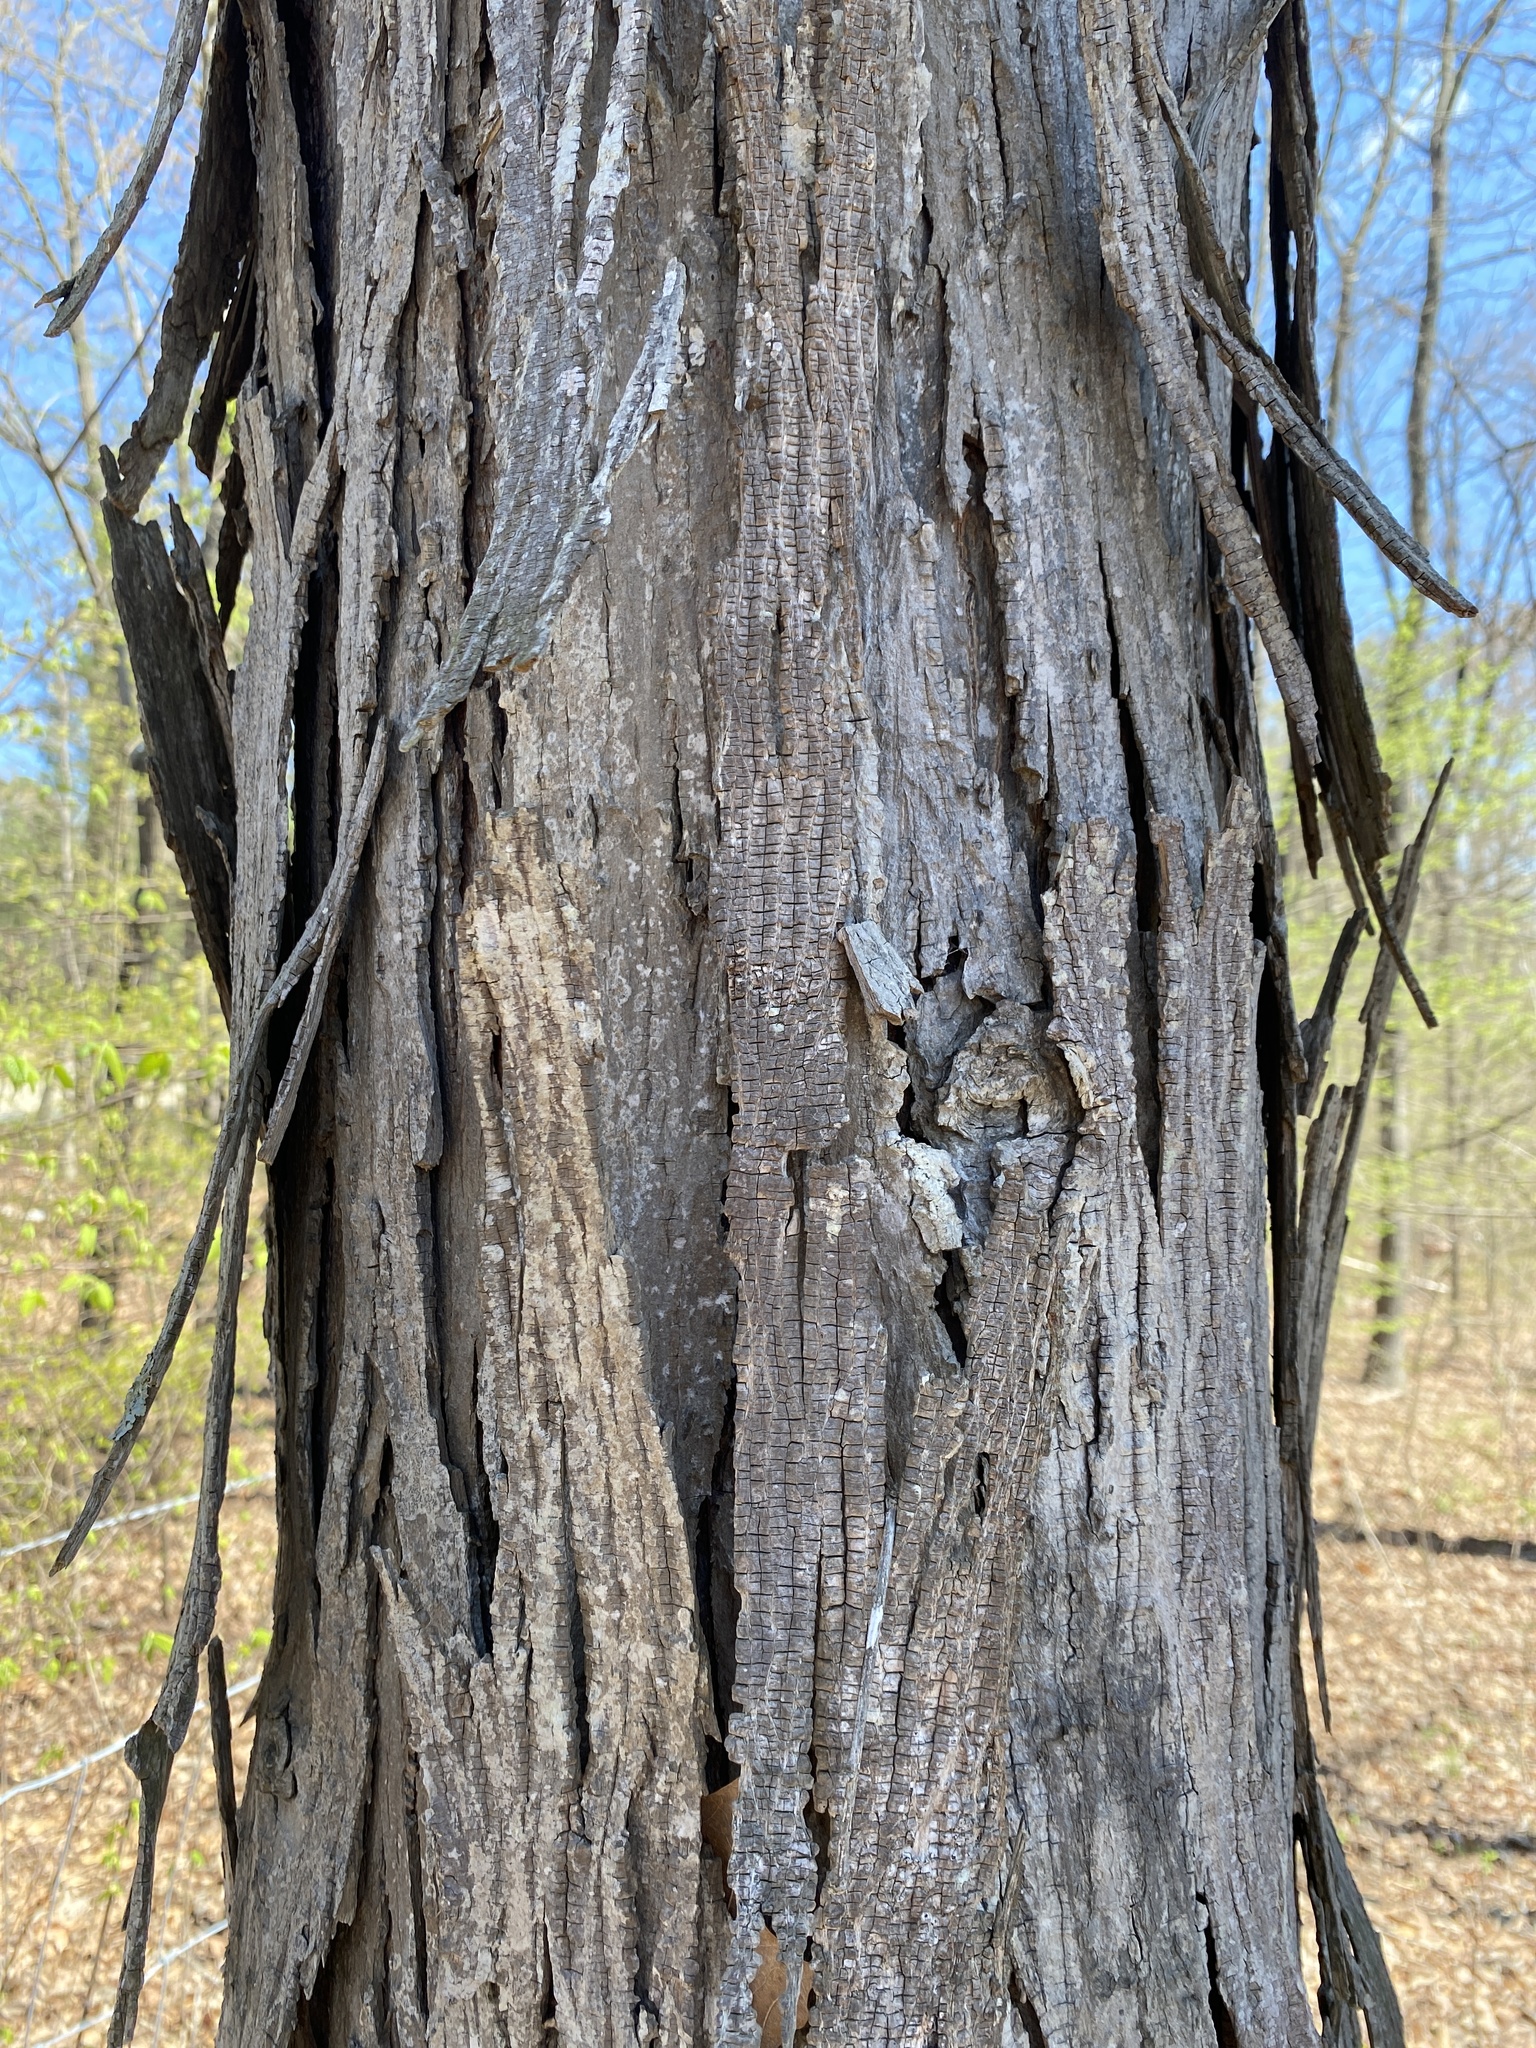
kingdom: Plantae
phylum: Tracheophyta
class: Magnoliopsida
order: Fagales
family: Juglandaceae
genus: Carya
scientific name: Carya carolinae-septentrionalis
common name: Carolina hickory
